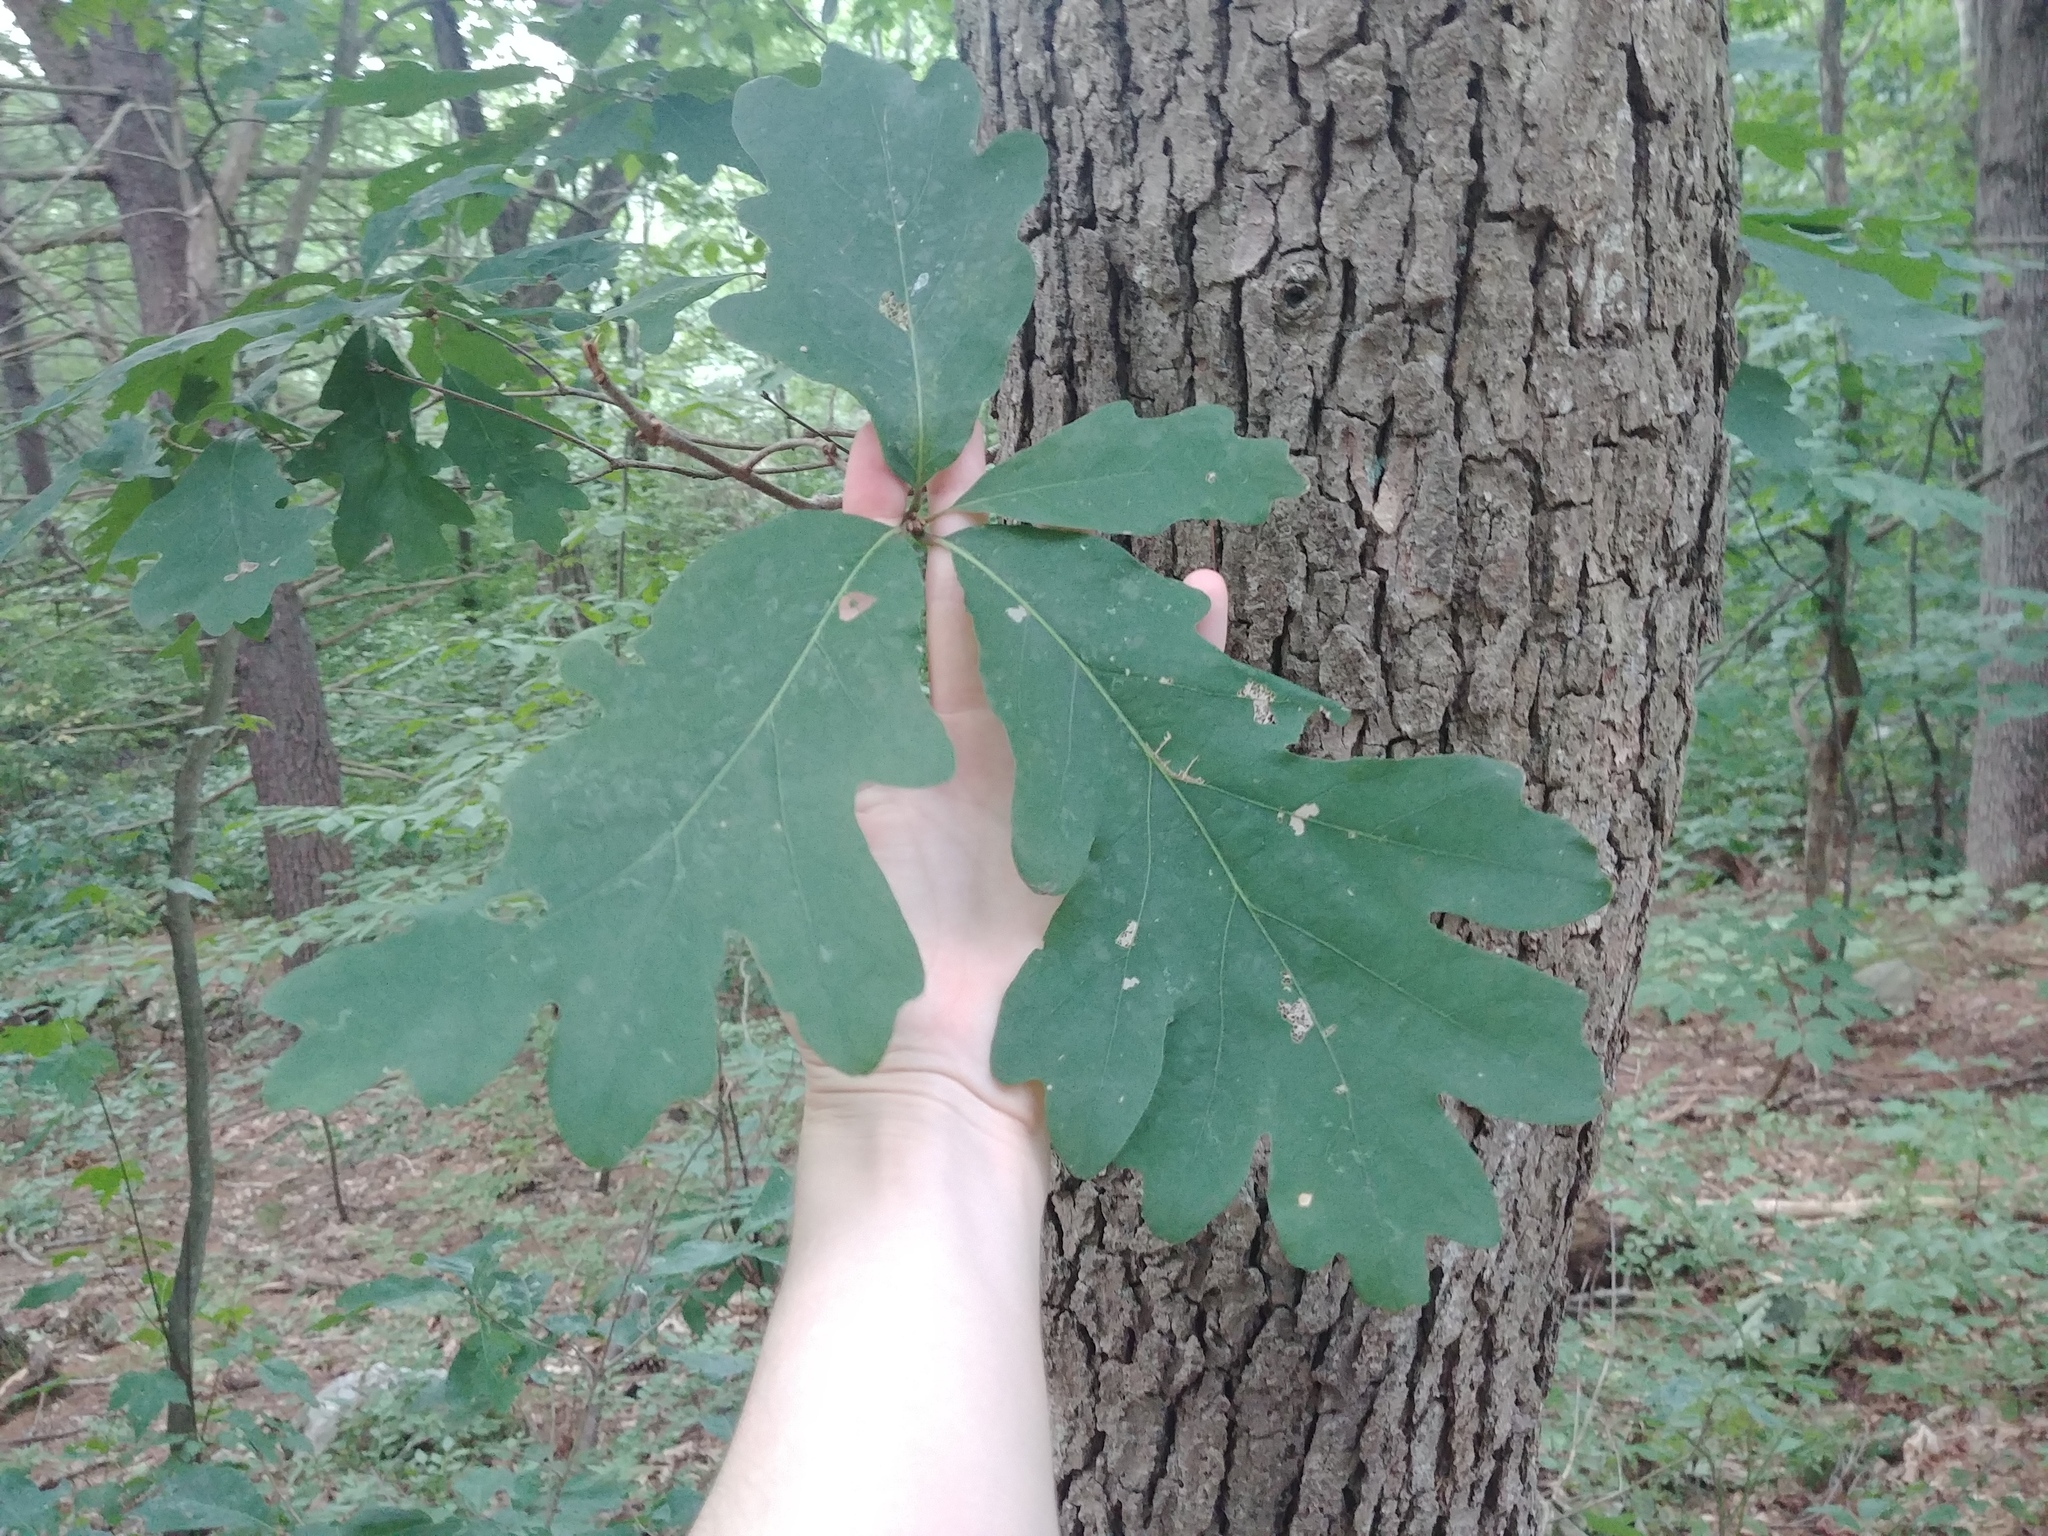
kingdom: Plantae
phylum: Tracheophyta
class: Magnoliopsida
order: Fagales
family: Fagaceae
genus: Quercus
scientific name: Quercus alba
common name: White oak
